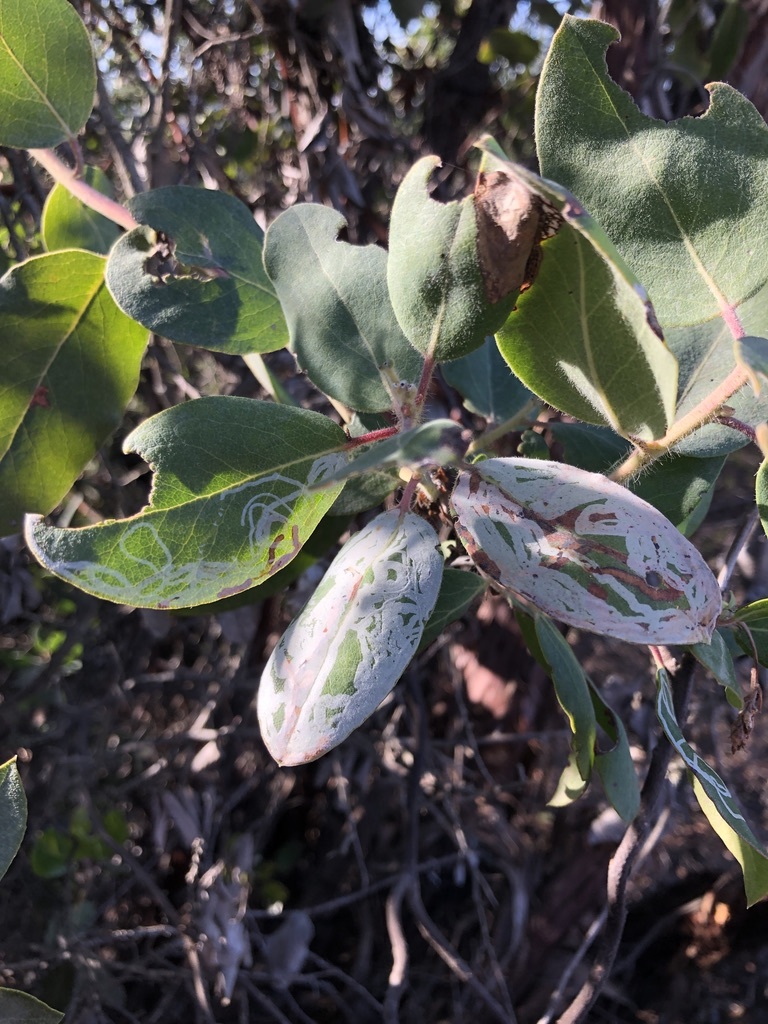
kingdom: Animalia
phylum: Arthropoda
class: Insecta
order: Lepidoptera
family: Gracillariidae
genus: Marmara
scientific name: Marmara arbutiella
